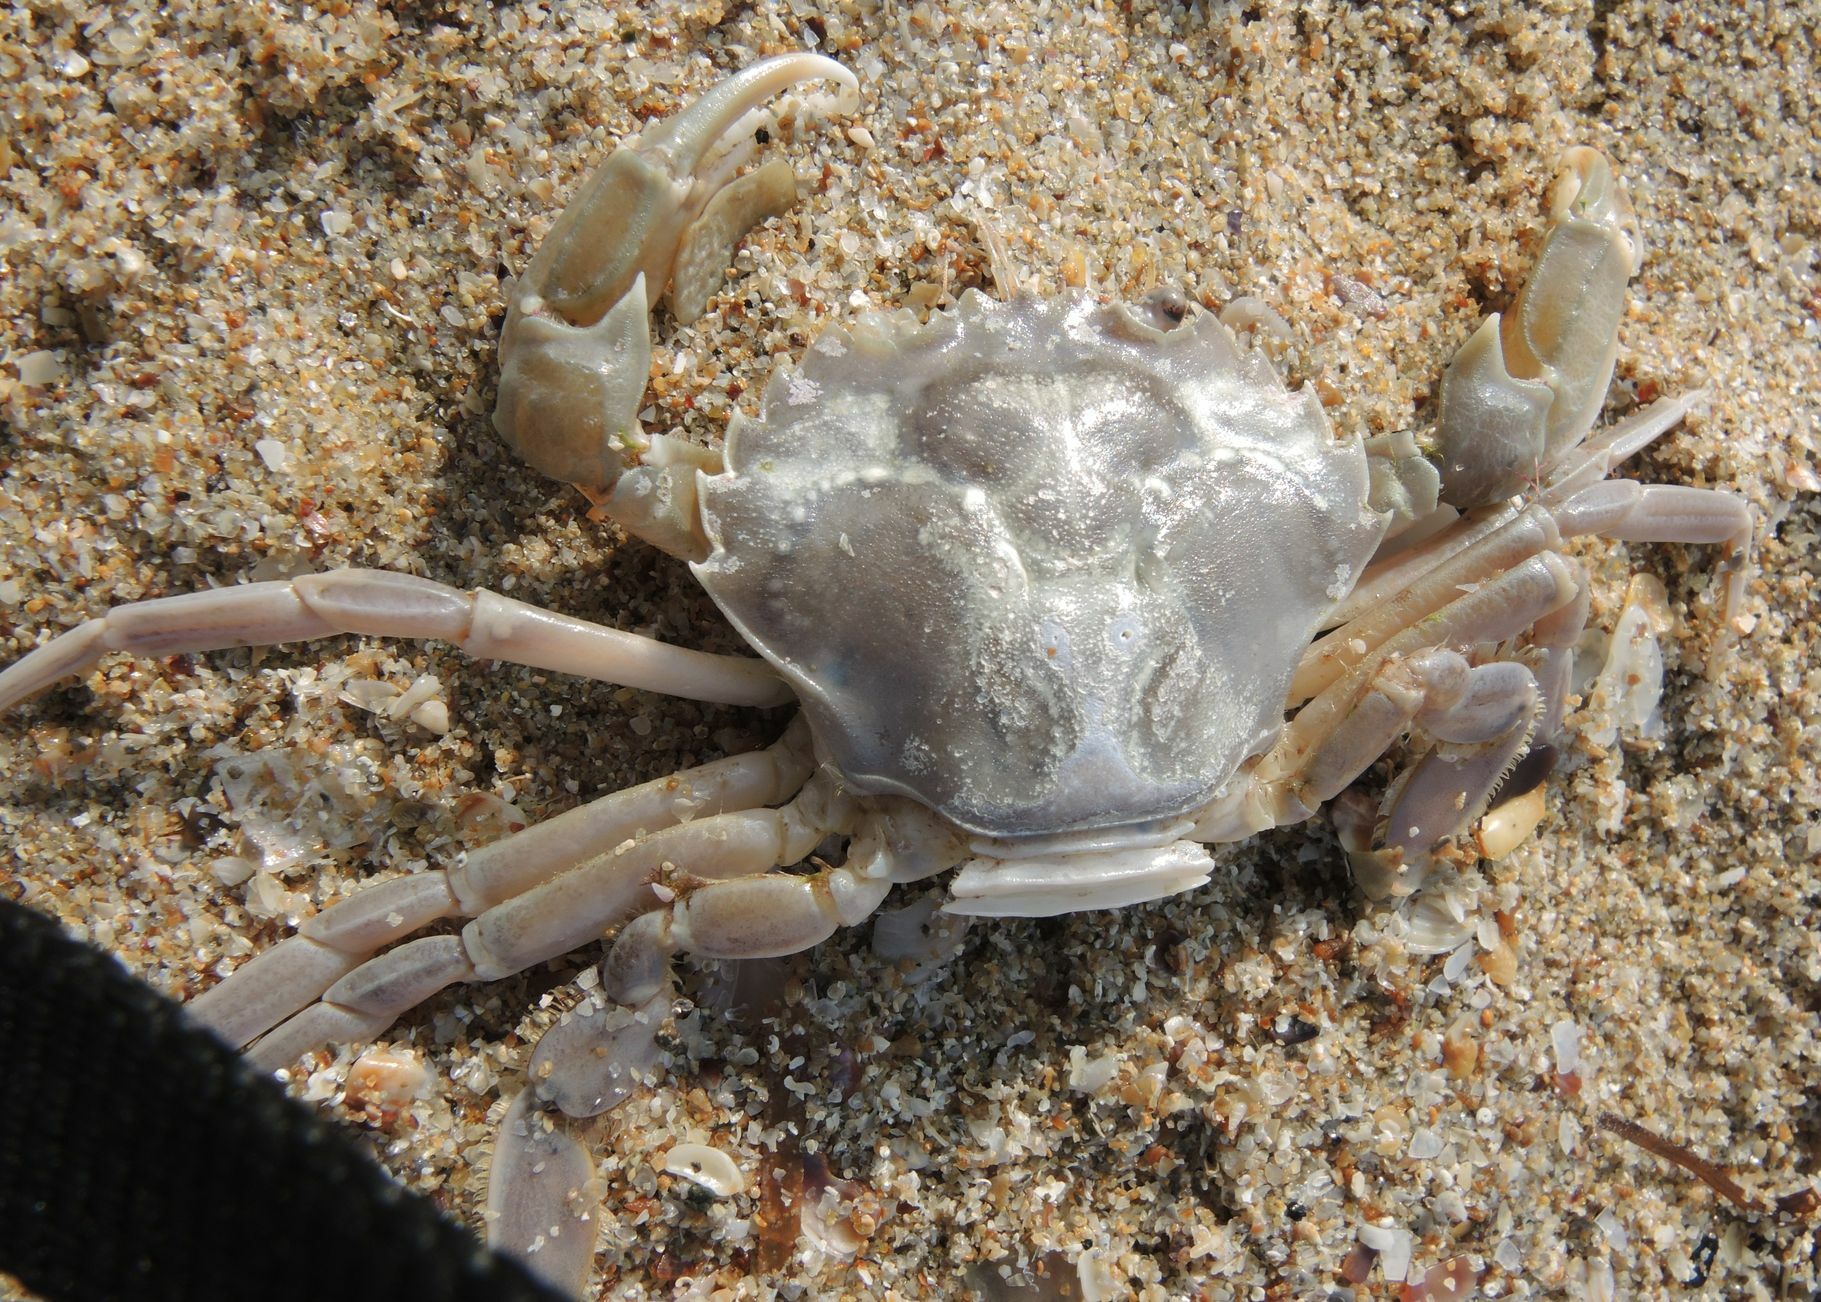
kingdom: Animalia
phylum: Arthropoda
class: Malacostraca
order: Decapoda
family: Polybiidae
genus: Liocarcinus
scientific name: Liocarcinus vernalis
